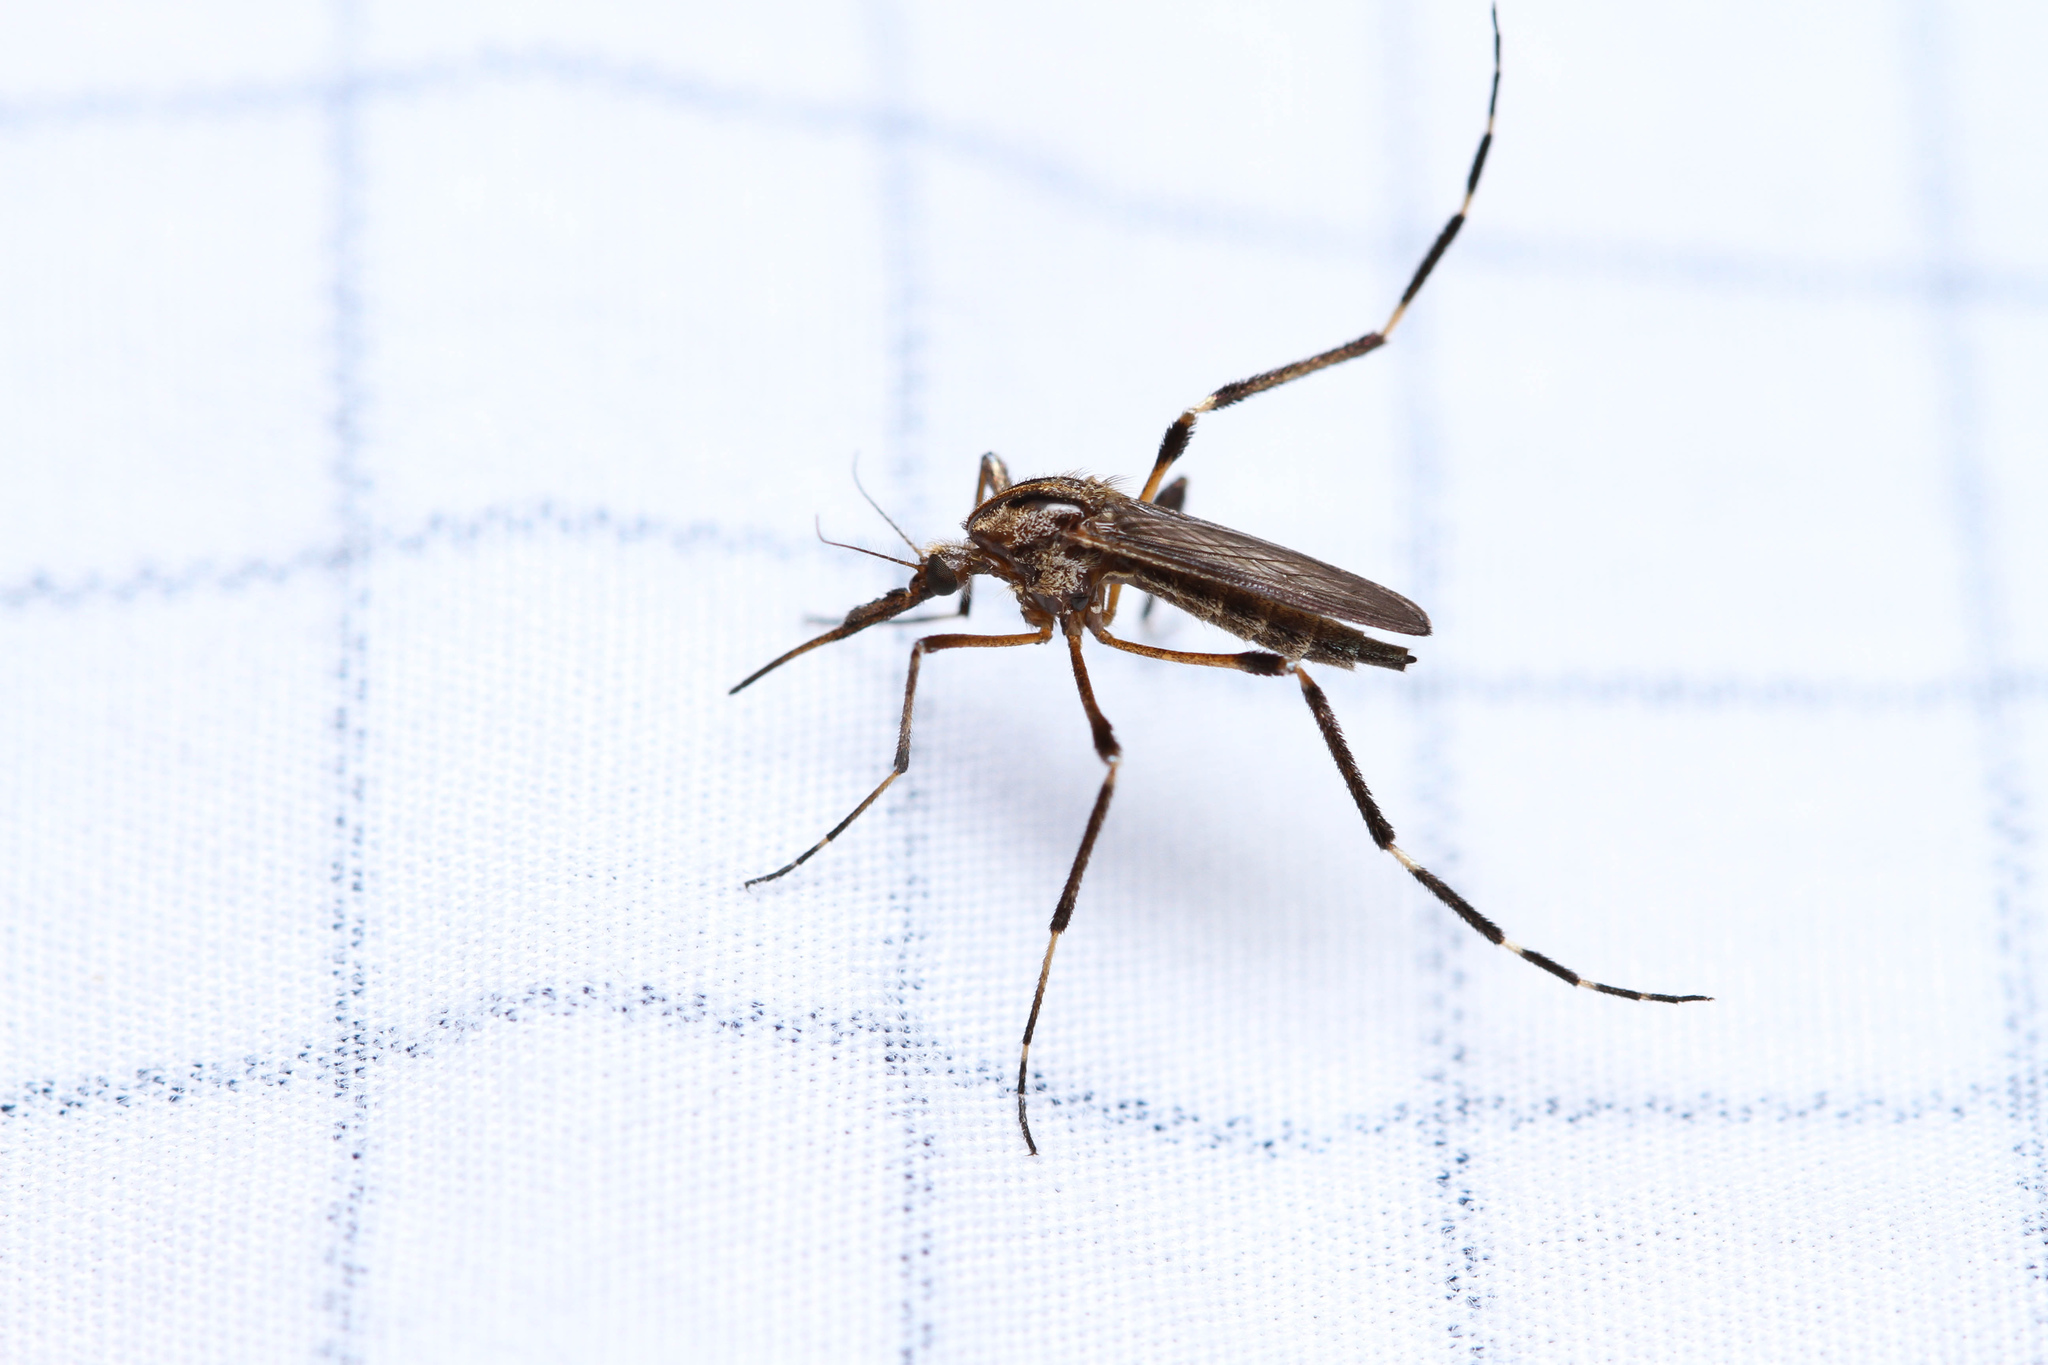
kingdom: Animalia
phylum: Arthropoda
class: Insecta
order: Diptera
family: Culicidae
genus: Psorophora
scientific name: Psorophora ciliata
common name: Gallinipper
